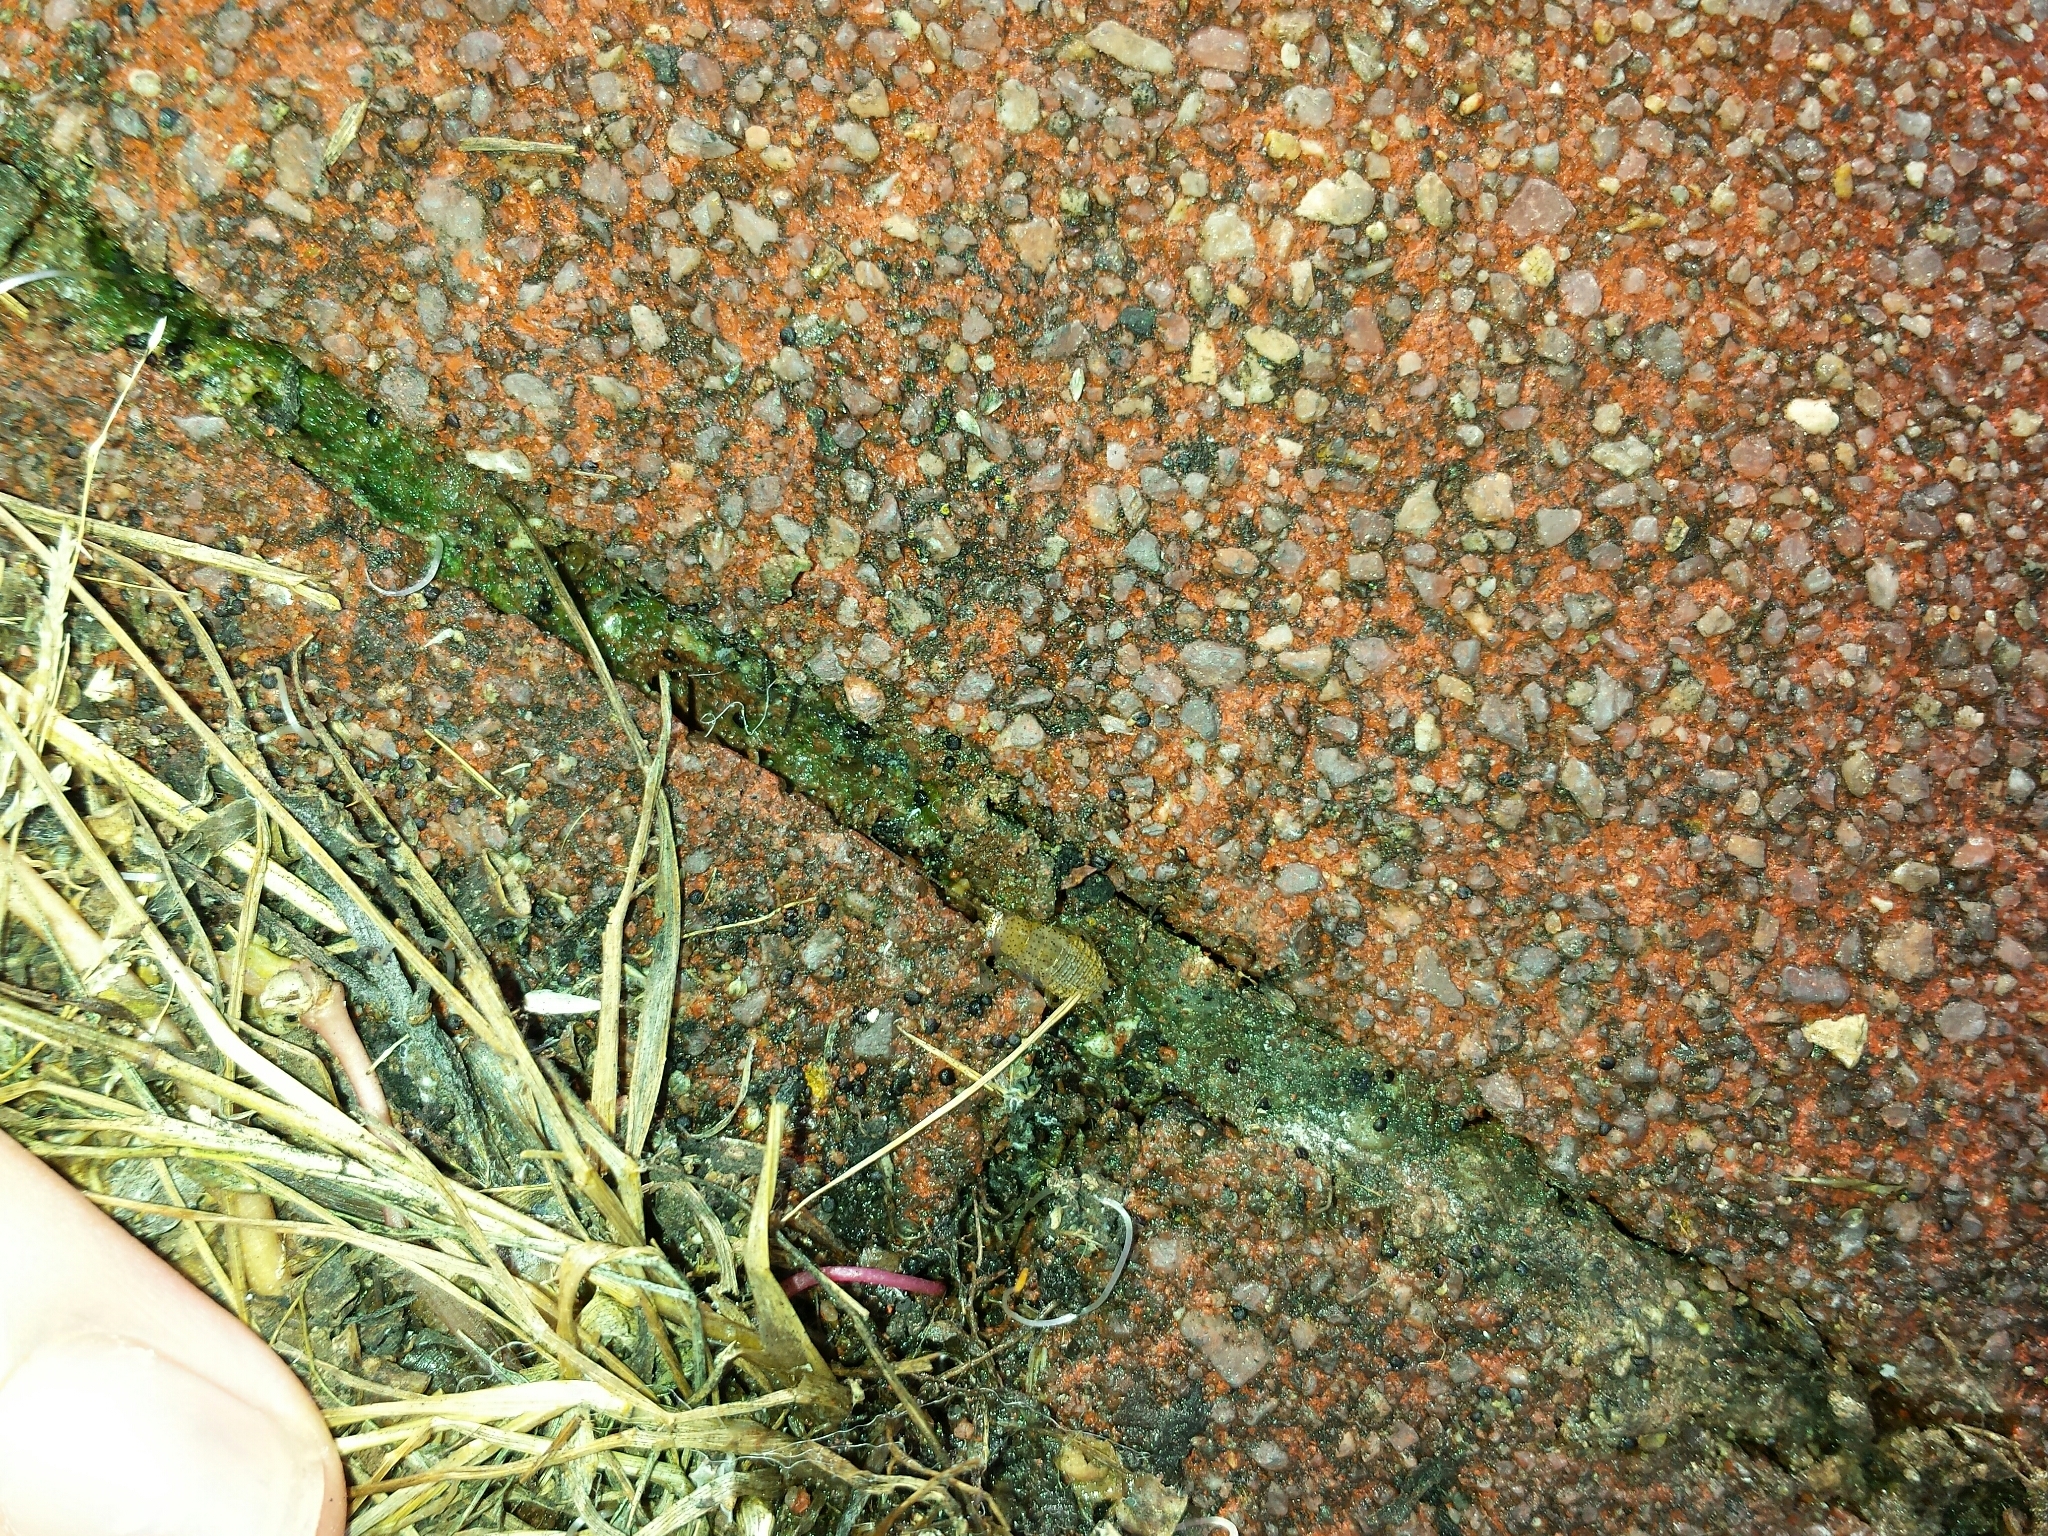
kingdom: Animalia
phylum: Arthropoda
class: Insecta
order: Blattodea
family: Ectobiidae
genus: Ectobius
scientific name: Ectobius pallidus
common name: Tawny cockroach
